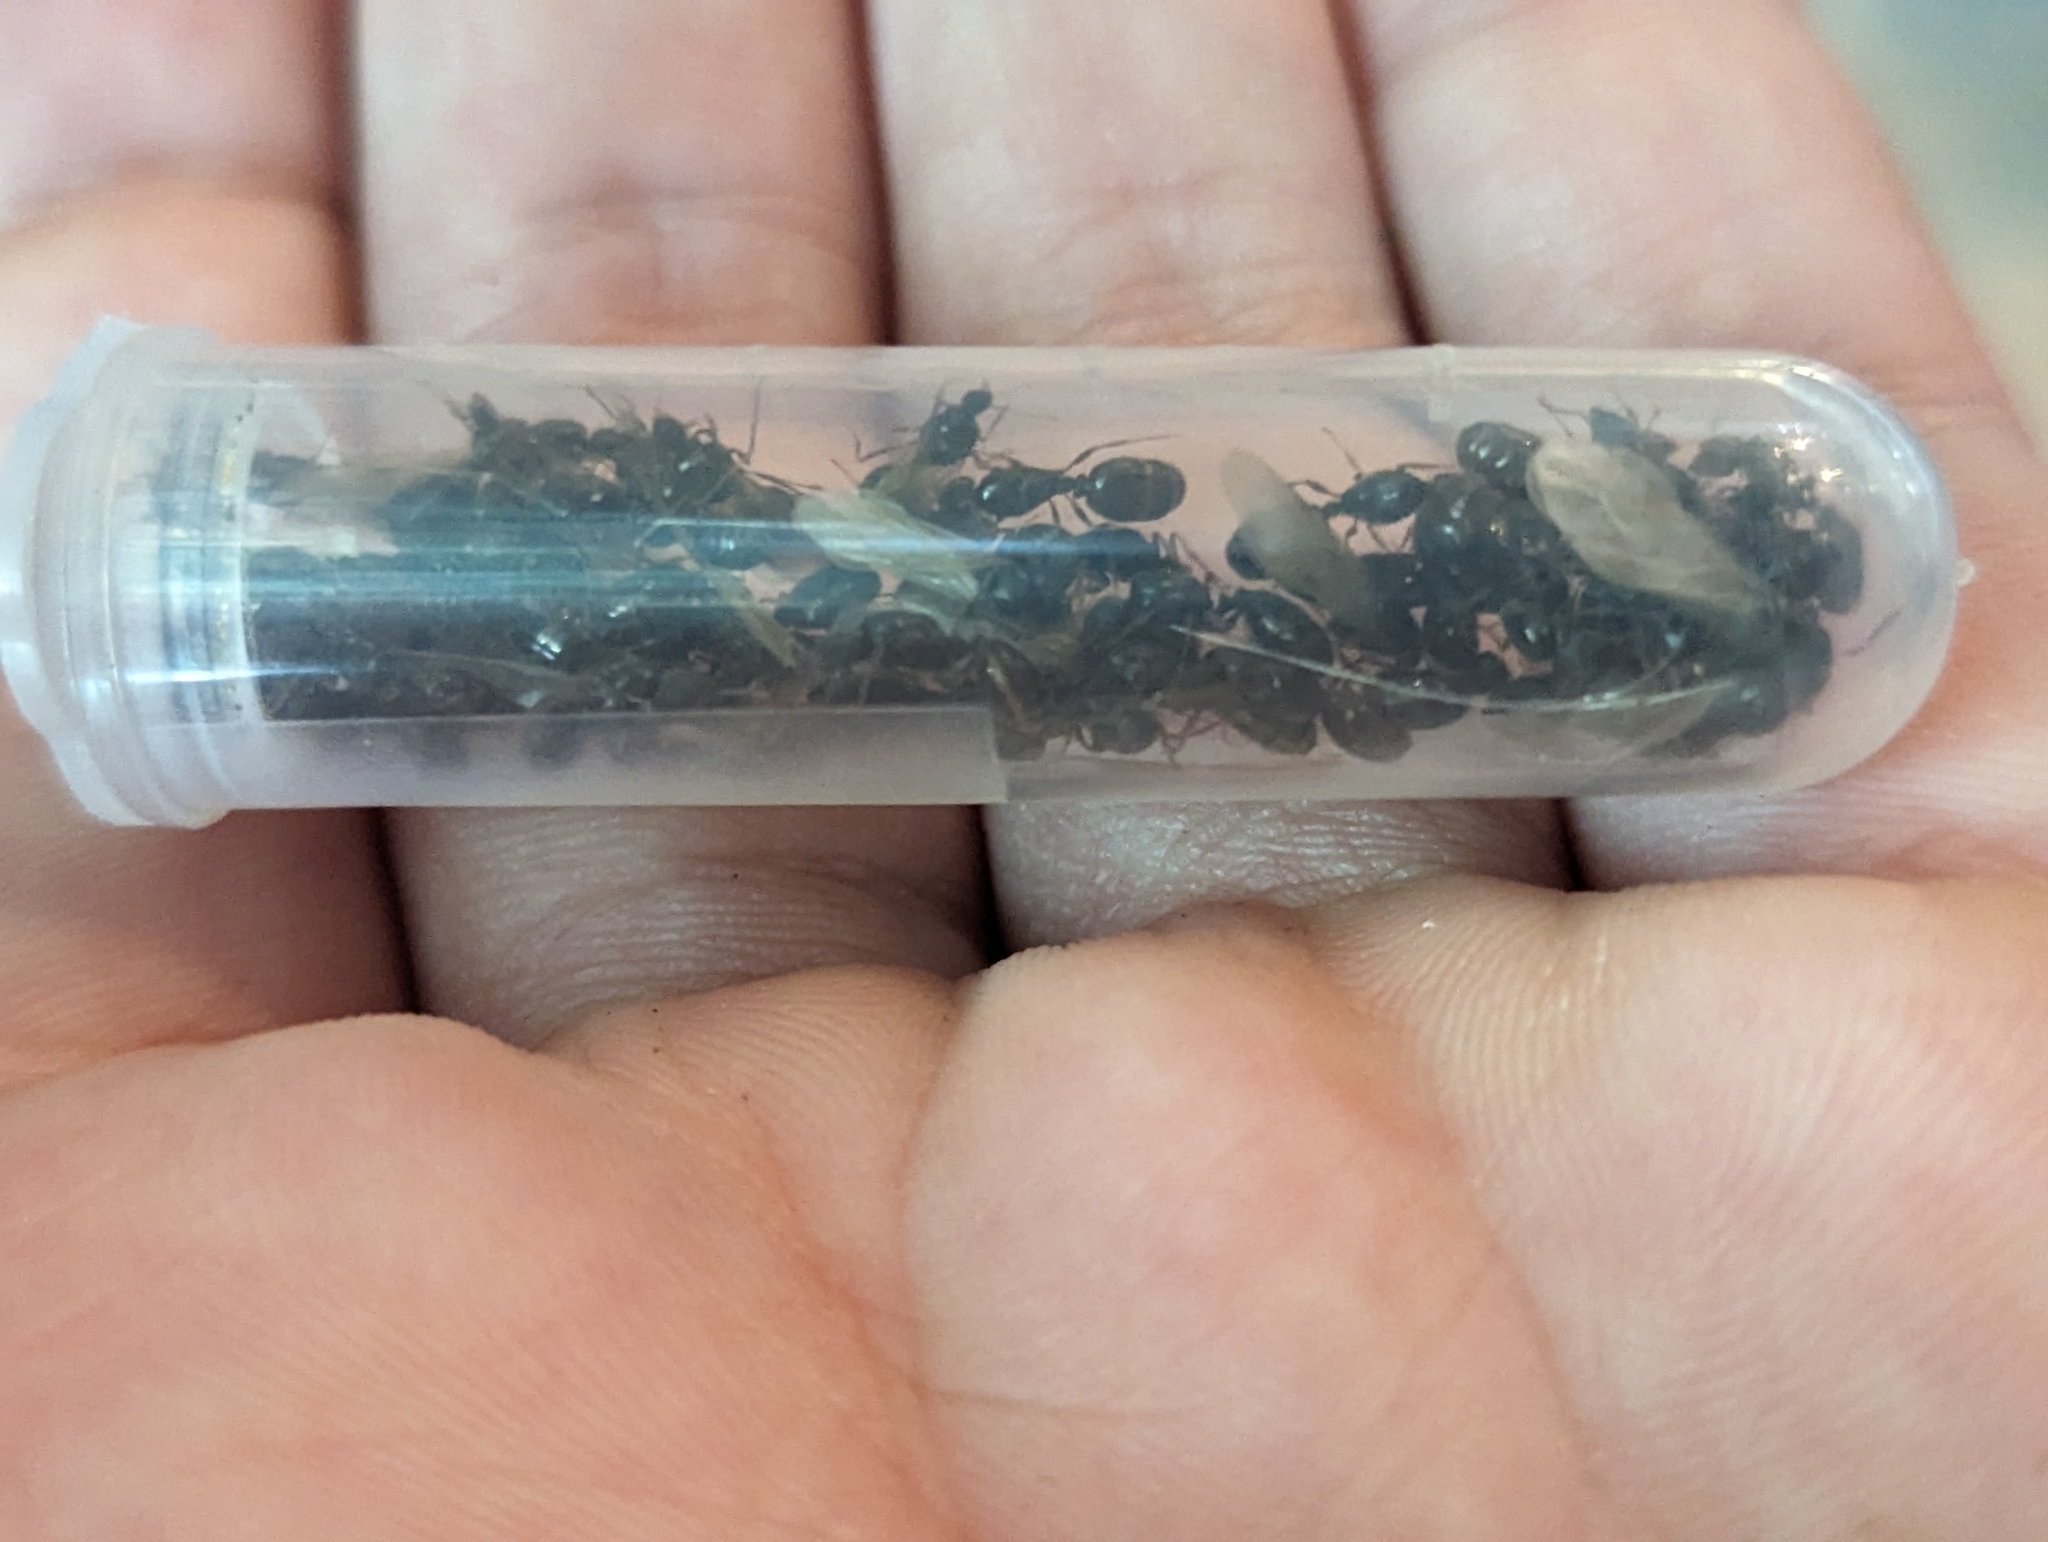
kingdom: Animalia
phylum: Arthropoda
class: Insecta
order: Hymenoptera
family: Formicidae
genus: Tetramorium
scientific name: Tetramorium immigrans
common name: Pavement ant
